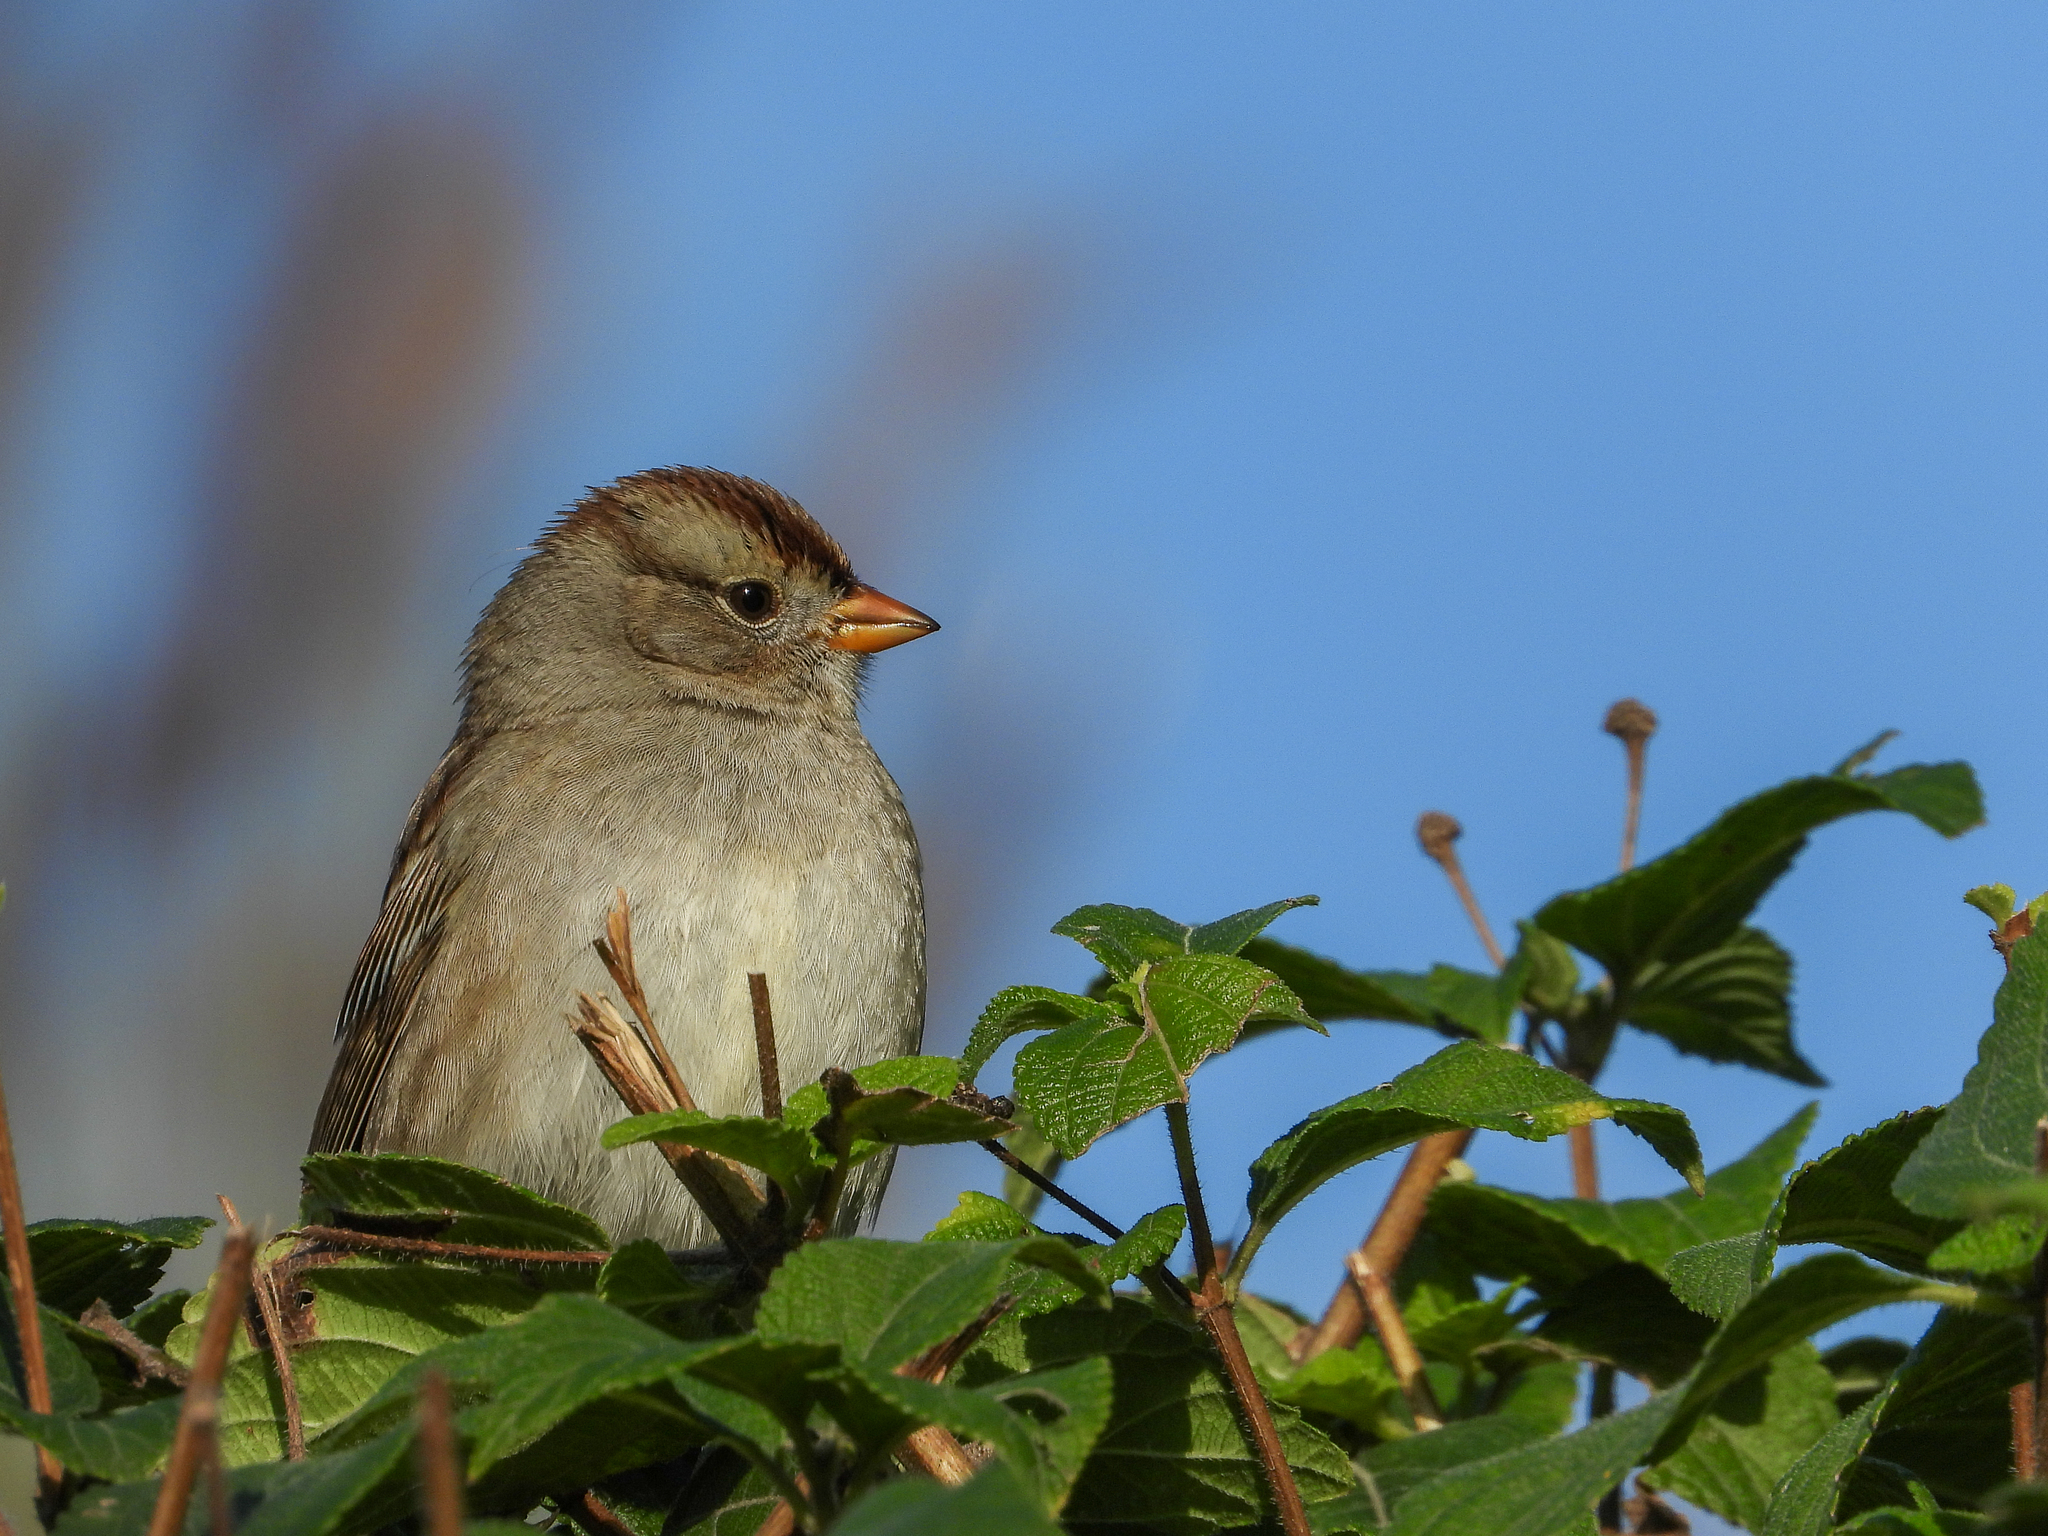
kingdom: Animalia
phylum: Chordata
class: Aves
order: Passeriformes
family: Passerellidae
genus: Zonotrichia
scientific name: Zonotrichia leucophrys
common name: White-crowned sparrow
